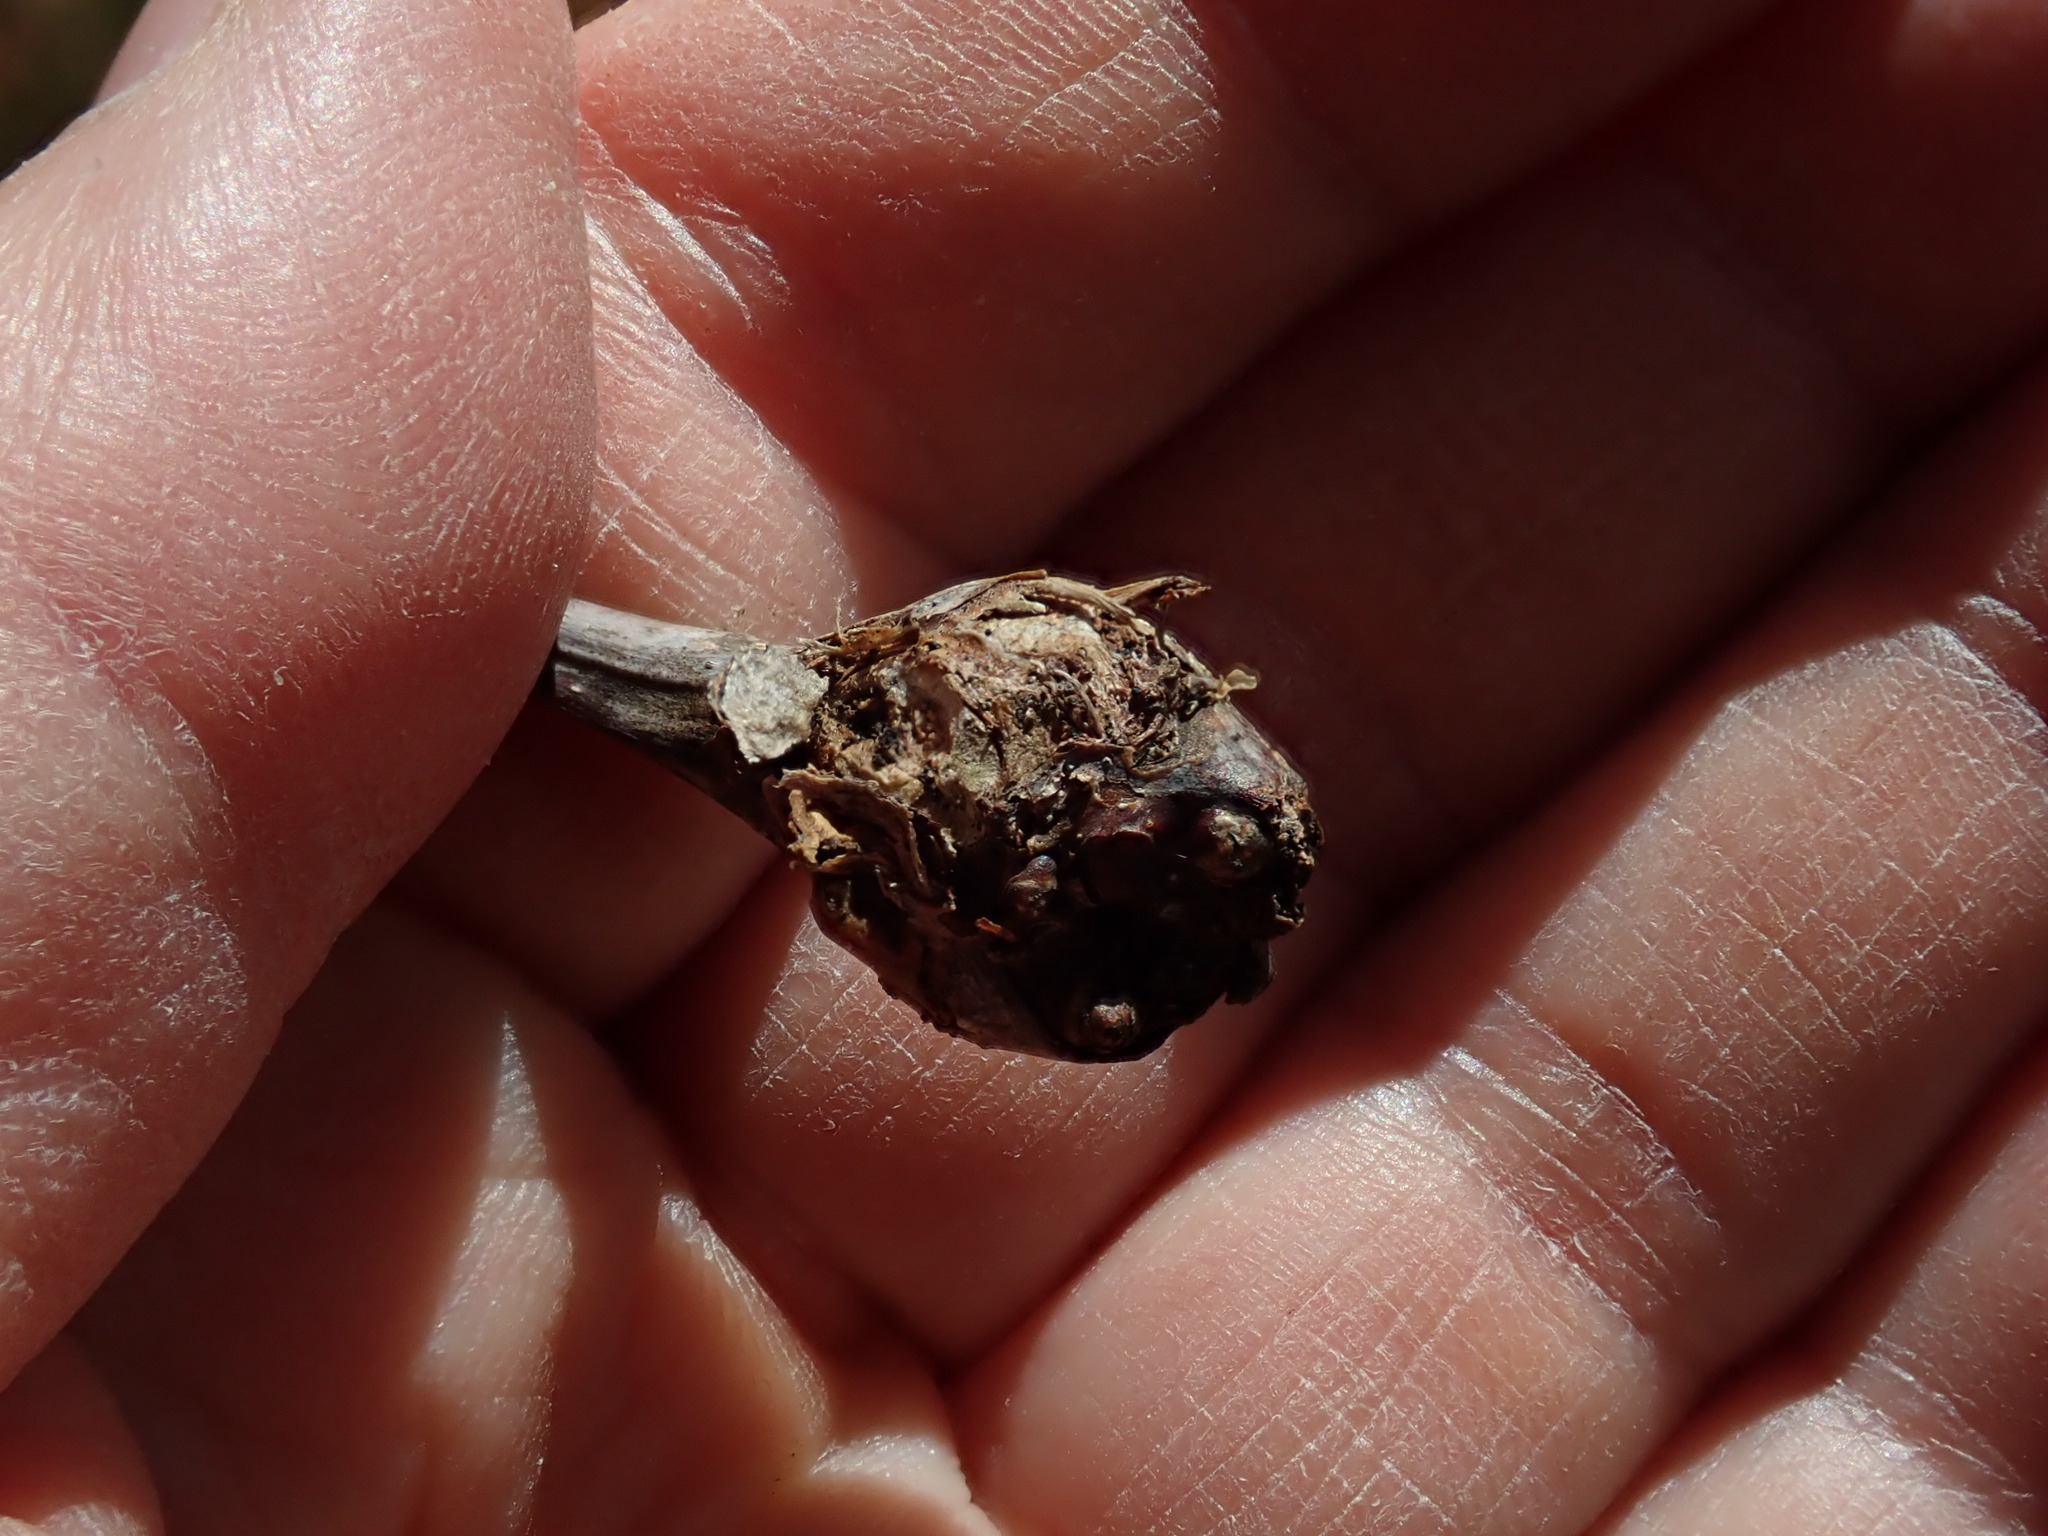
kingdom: Animalia
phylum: Arthropoda
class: Insecta
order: Hymenoptera
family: Cynipidae
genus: Callirhytis
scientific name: Callirhytis clavula
